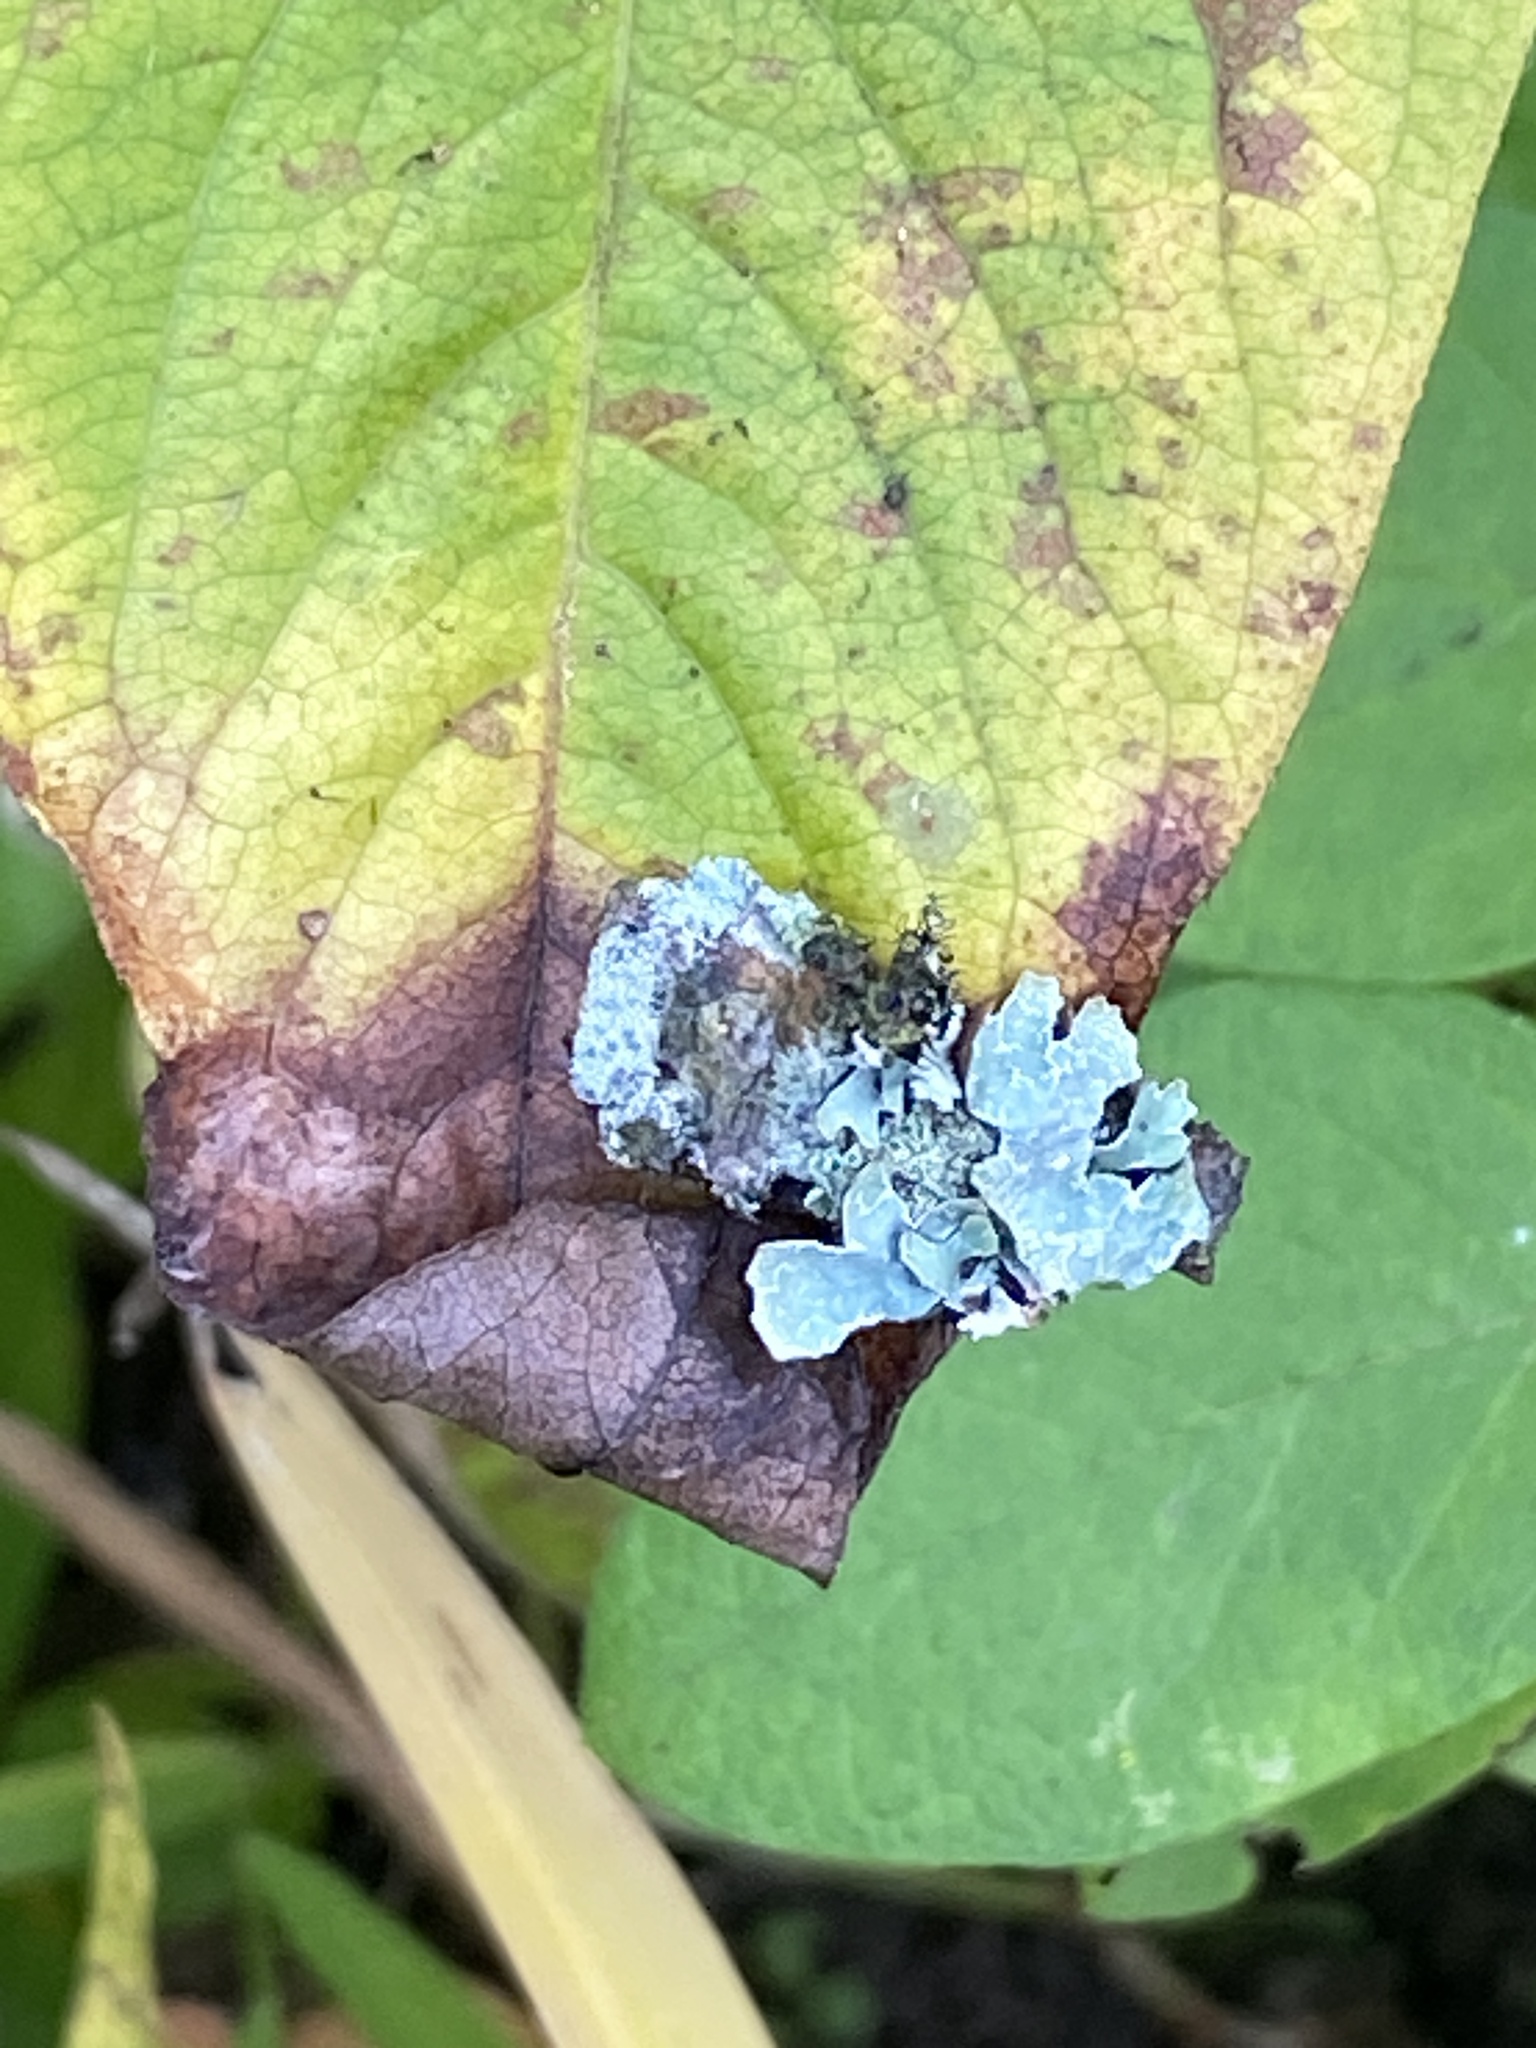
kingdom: Plantae
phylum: Tracheophyta
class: Magnoliopsida
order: Caryophyllales
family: Polygonaceae
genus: Persicaria
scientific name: Persicaria virginiana
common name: Jumpseed
